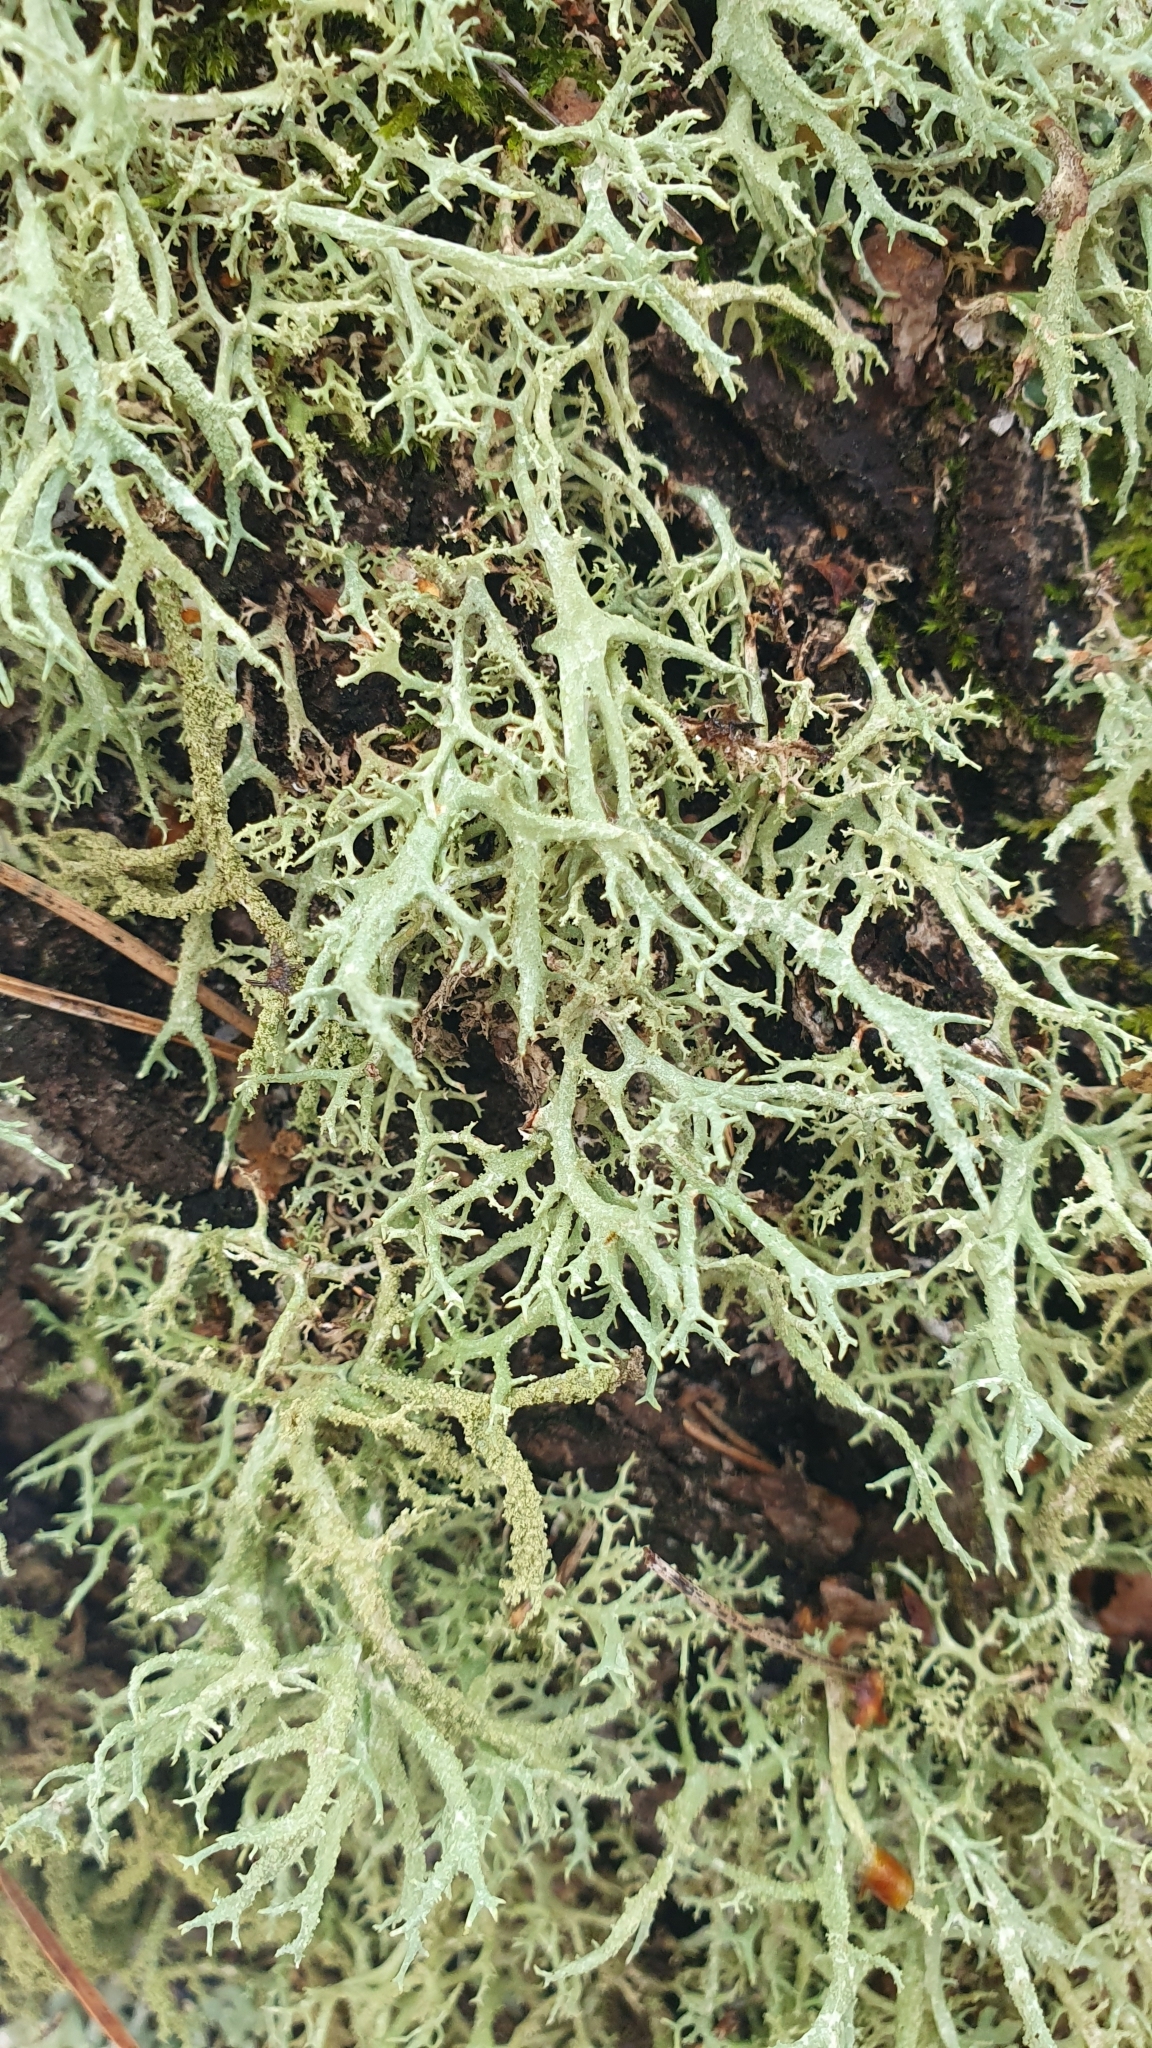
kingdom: Fungi
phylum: Ascomycota
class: Lecanoromycetes
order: Lecanorales
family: Parmeliaceae
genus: Evernia
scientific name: Evernia mesomorpha
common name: Boreal oak moss lichen
